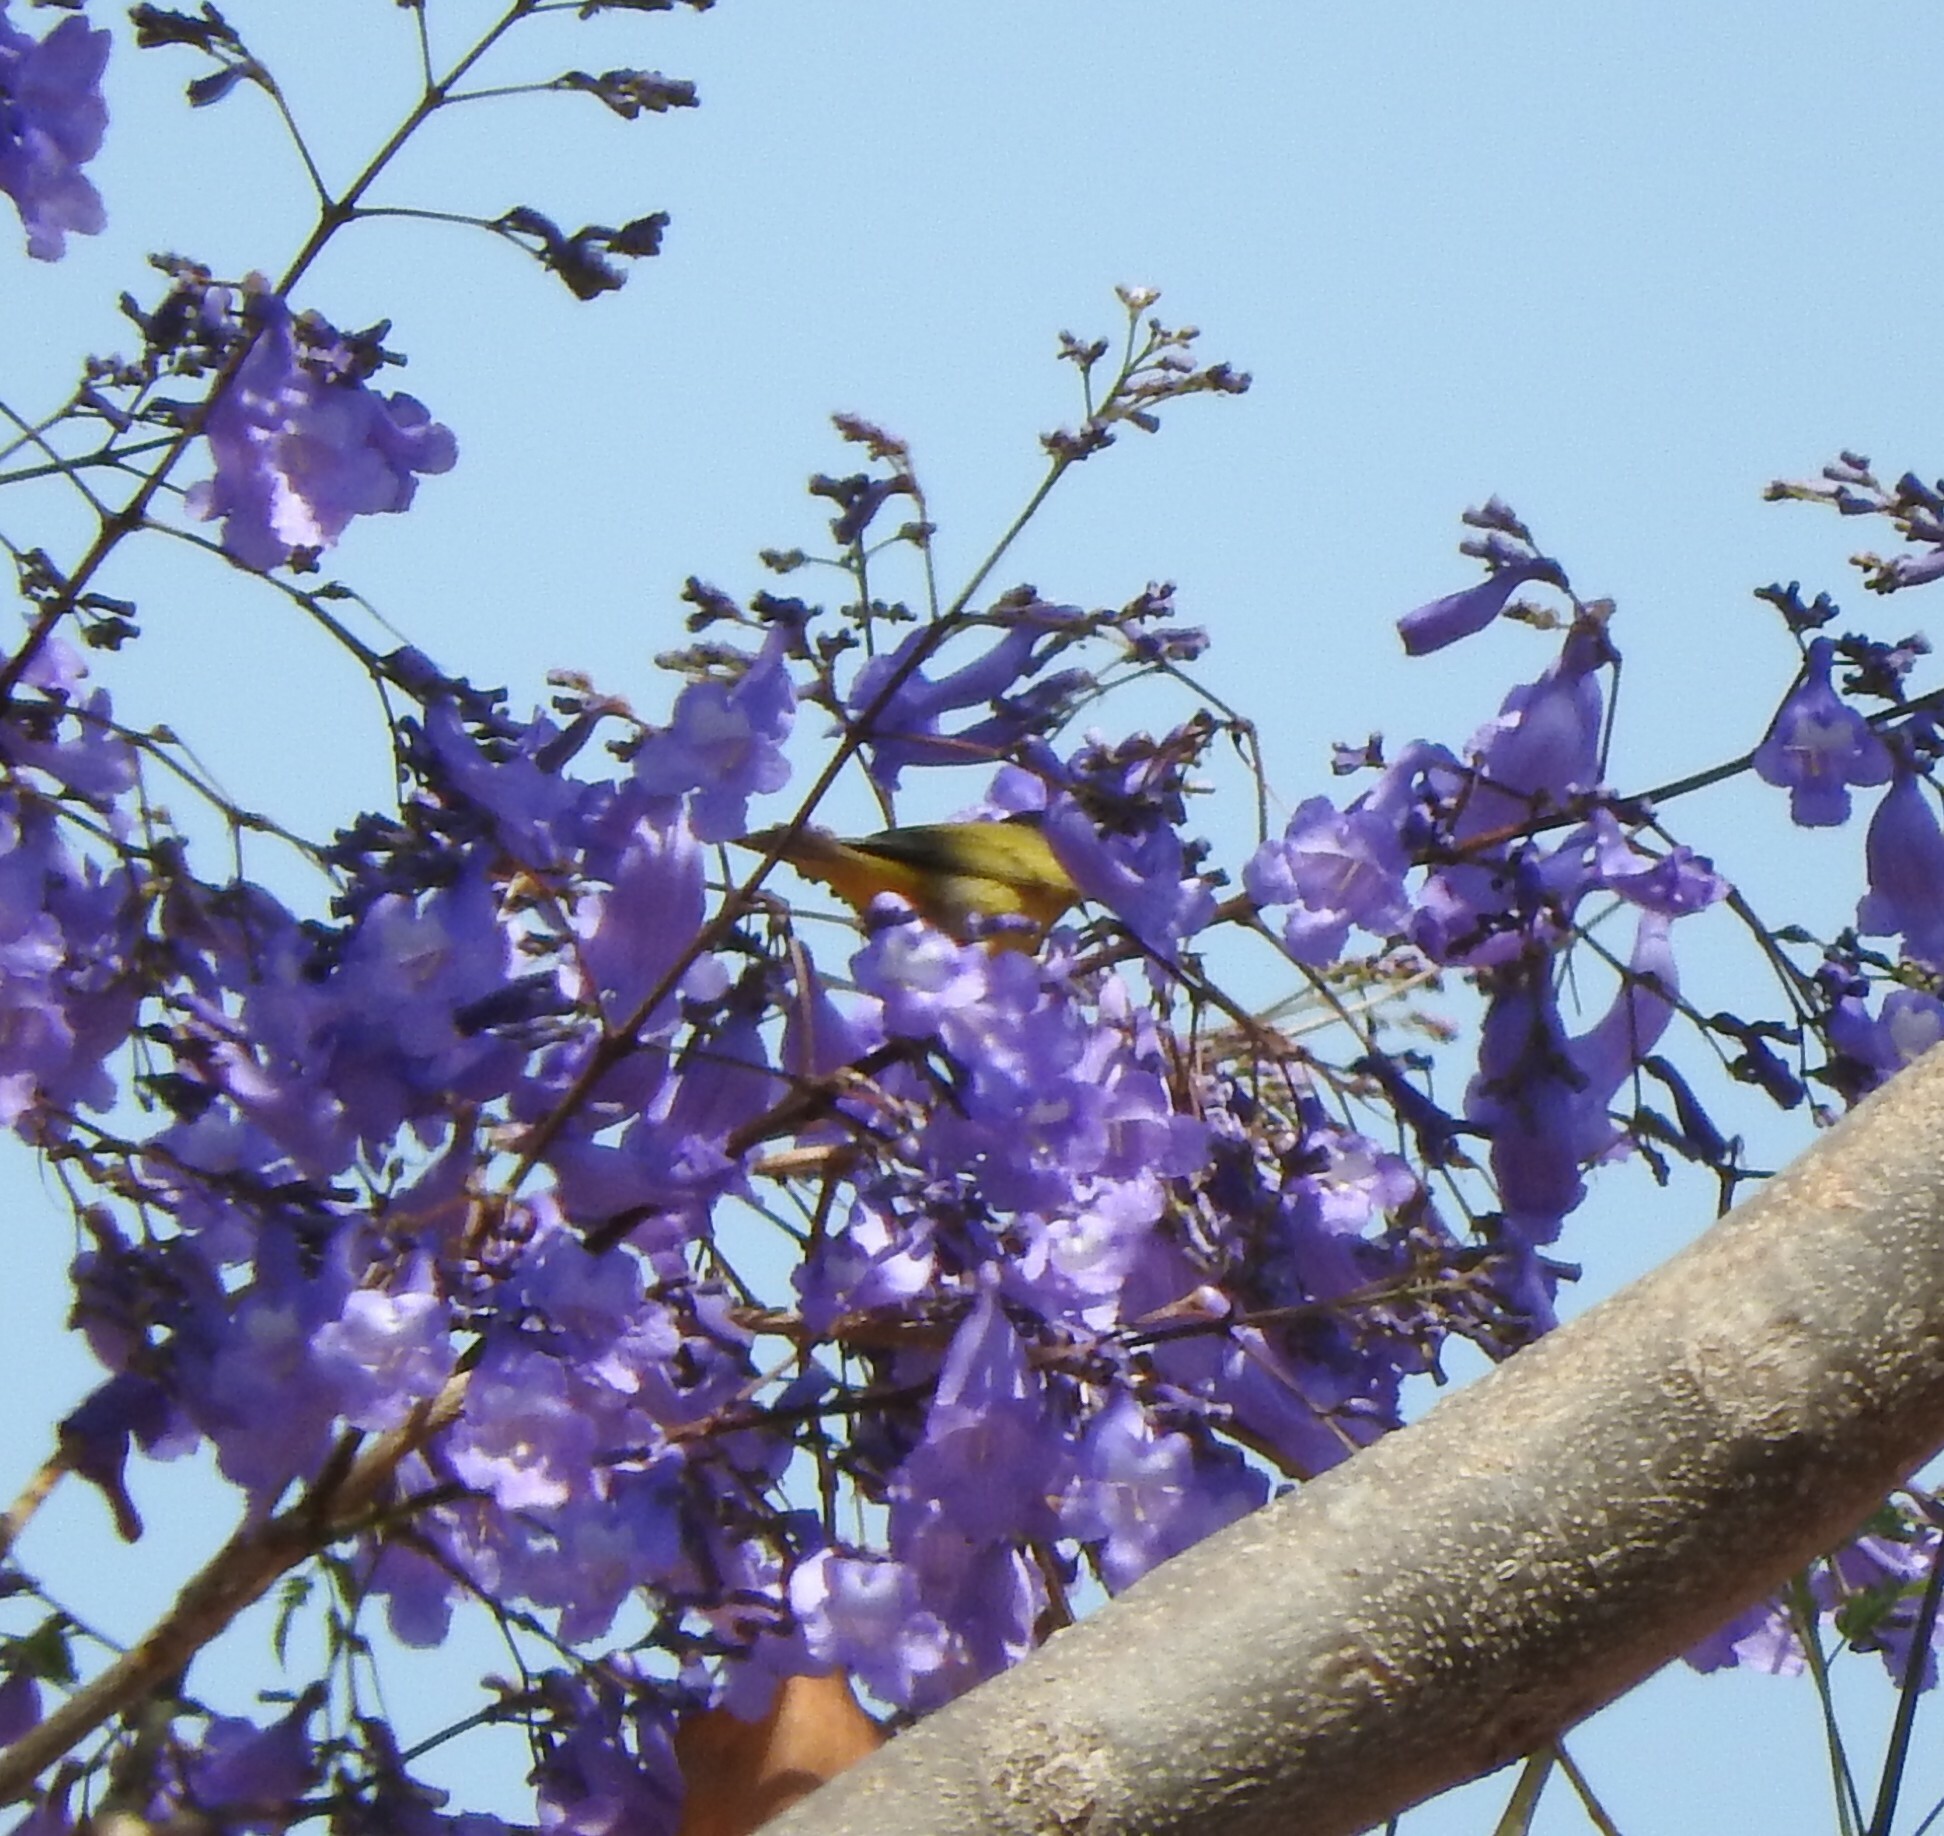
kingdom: Animalia
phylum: Chordata
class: Aves
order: Passeriformes
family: Parulidae
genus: Cardellina
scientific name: Cardellina pusilla
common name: Wilson's warbler
